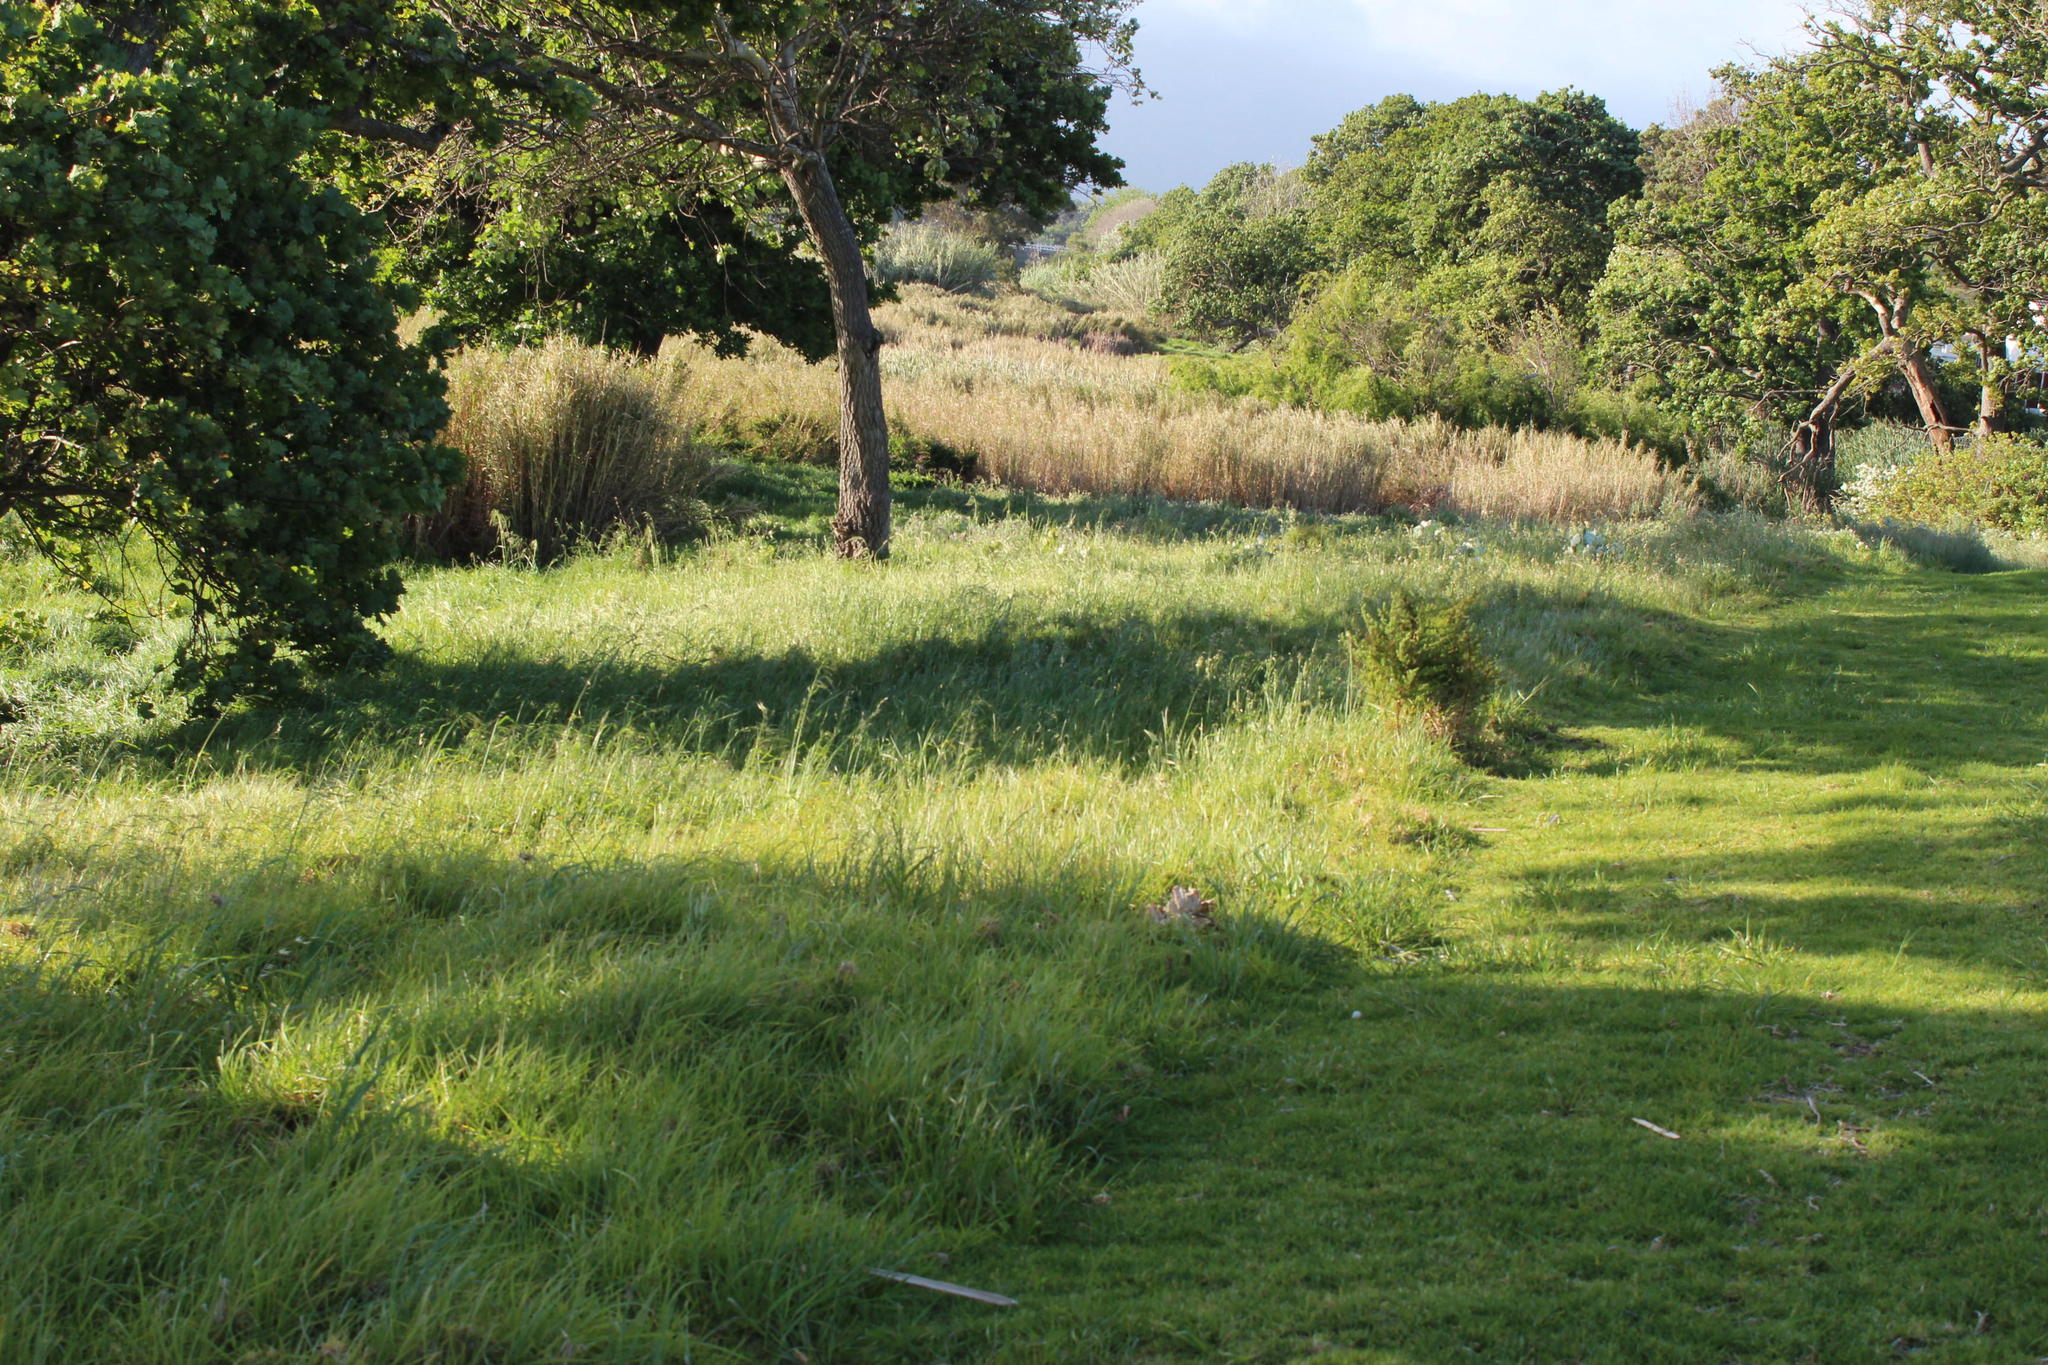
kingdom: Plantae
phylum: Tracheophyta
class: Magnoliopsida
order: Fabales
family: Fabaceae
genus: Vicia
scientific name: Vicia sativa
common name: Garden vetch
